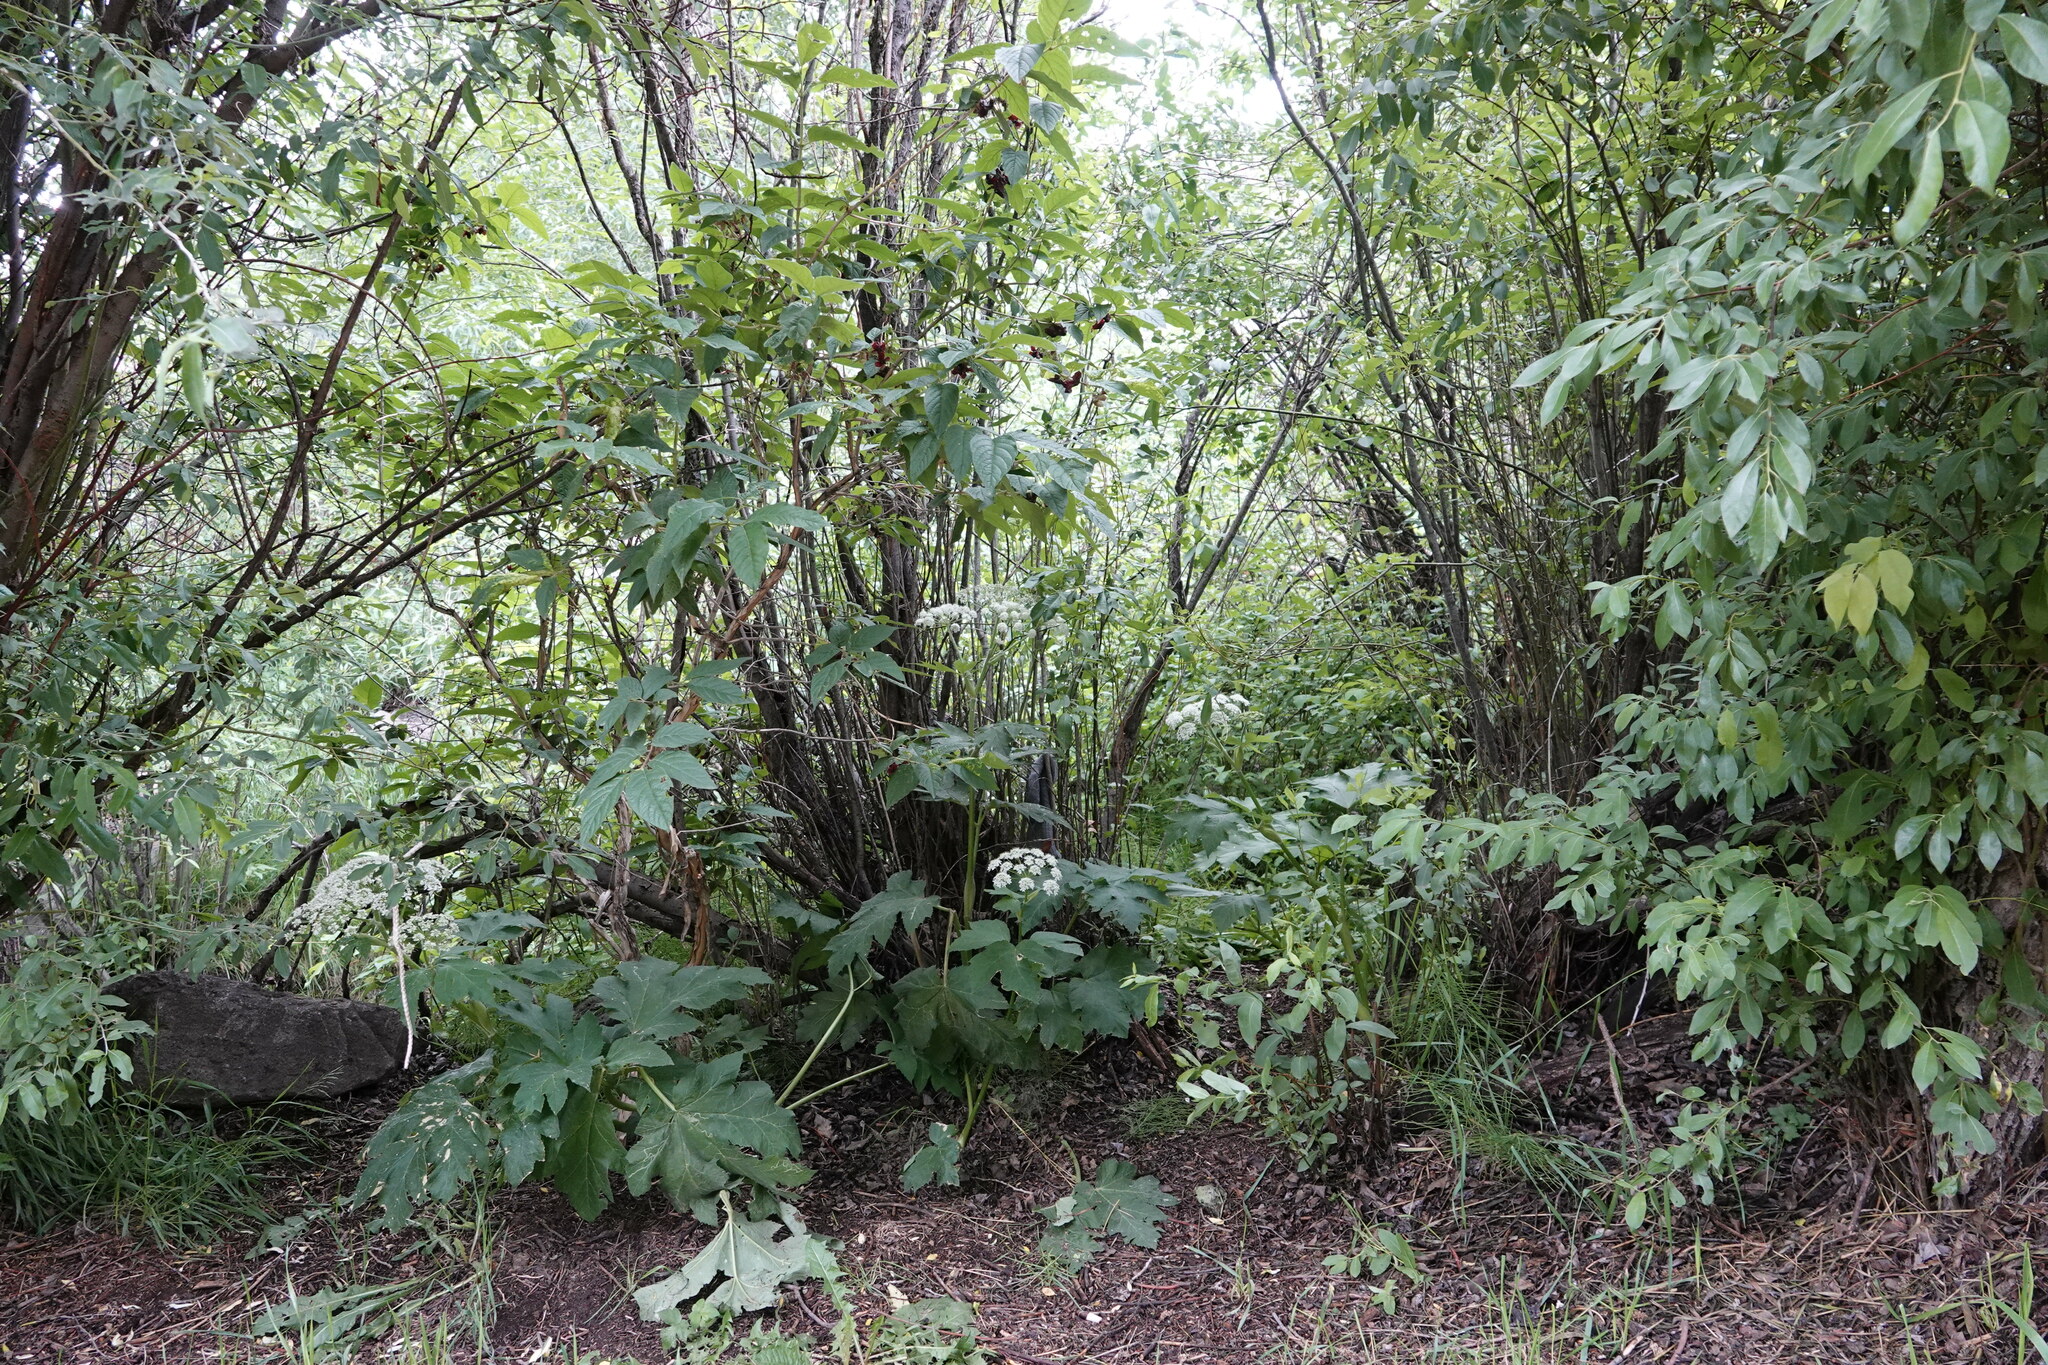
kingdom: Plantae
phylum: Tracheophyta
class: Magnoliopsida
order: Apiales
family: Apiaceae
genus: Heracleum
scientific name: Heracleum maximum
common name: American cow parsnip
